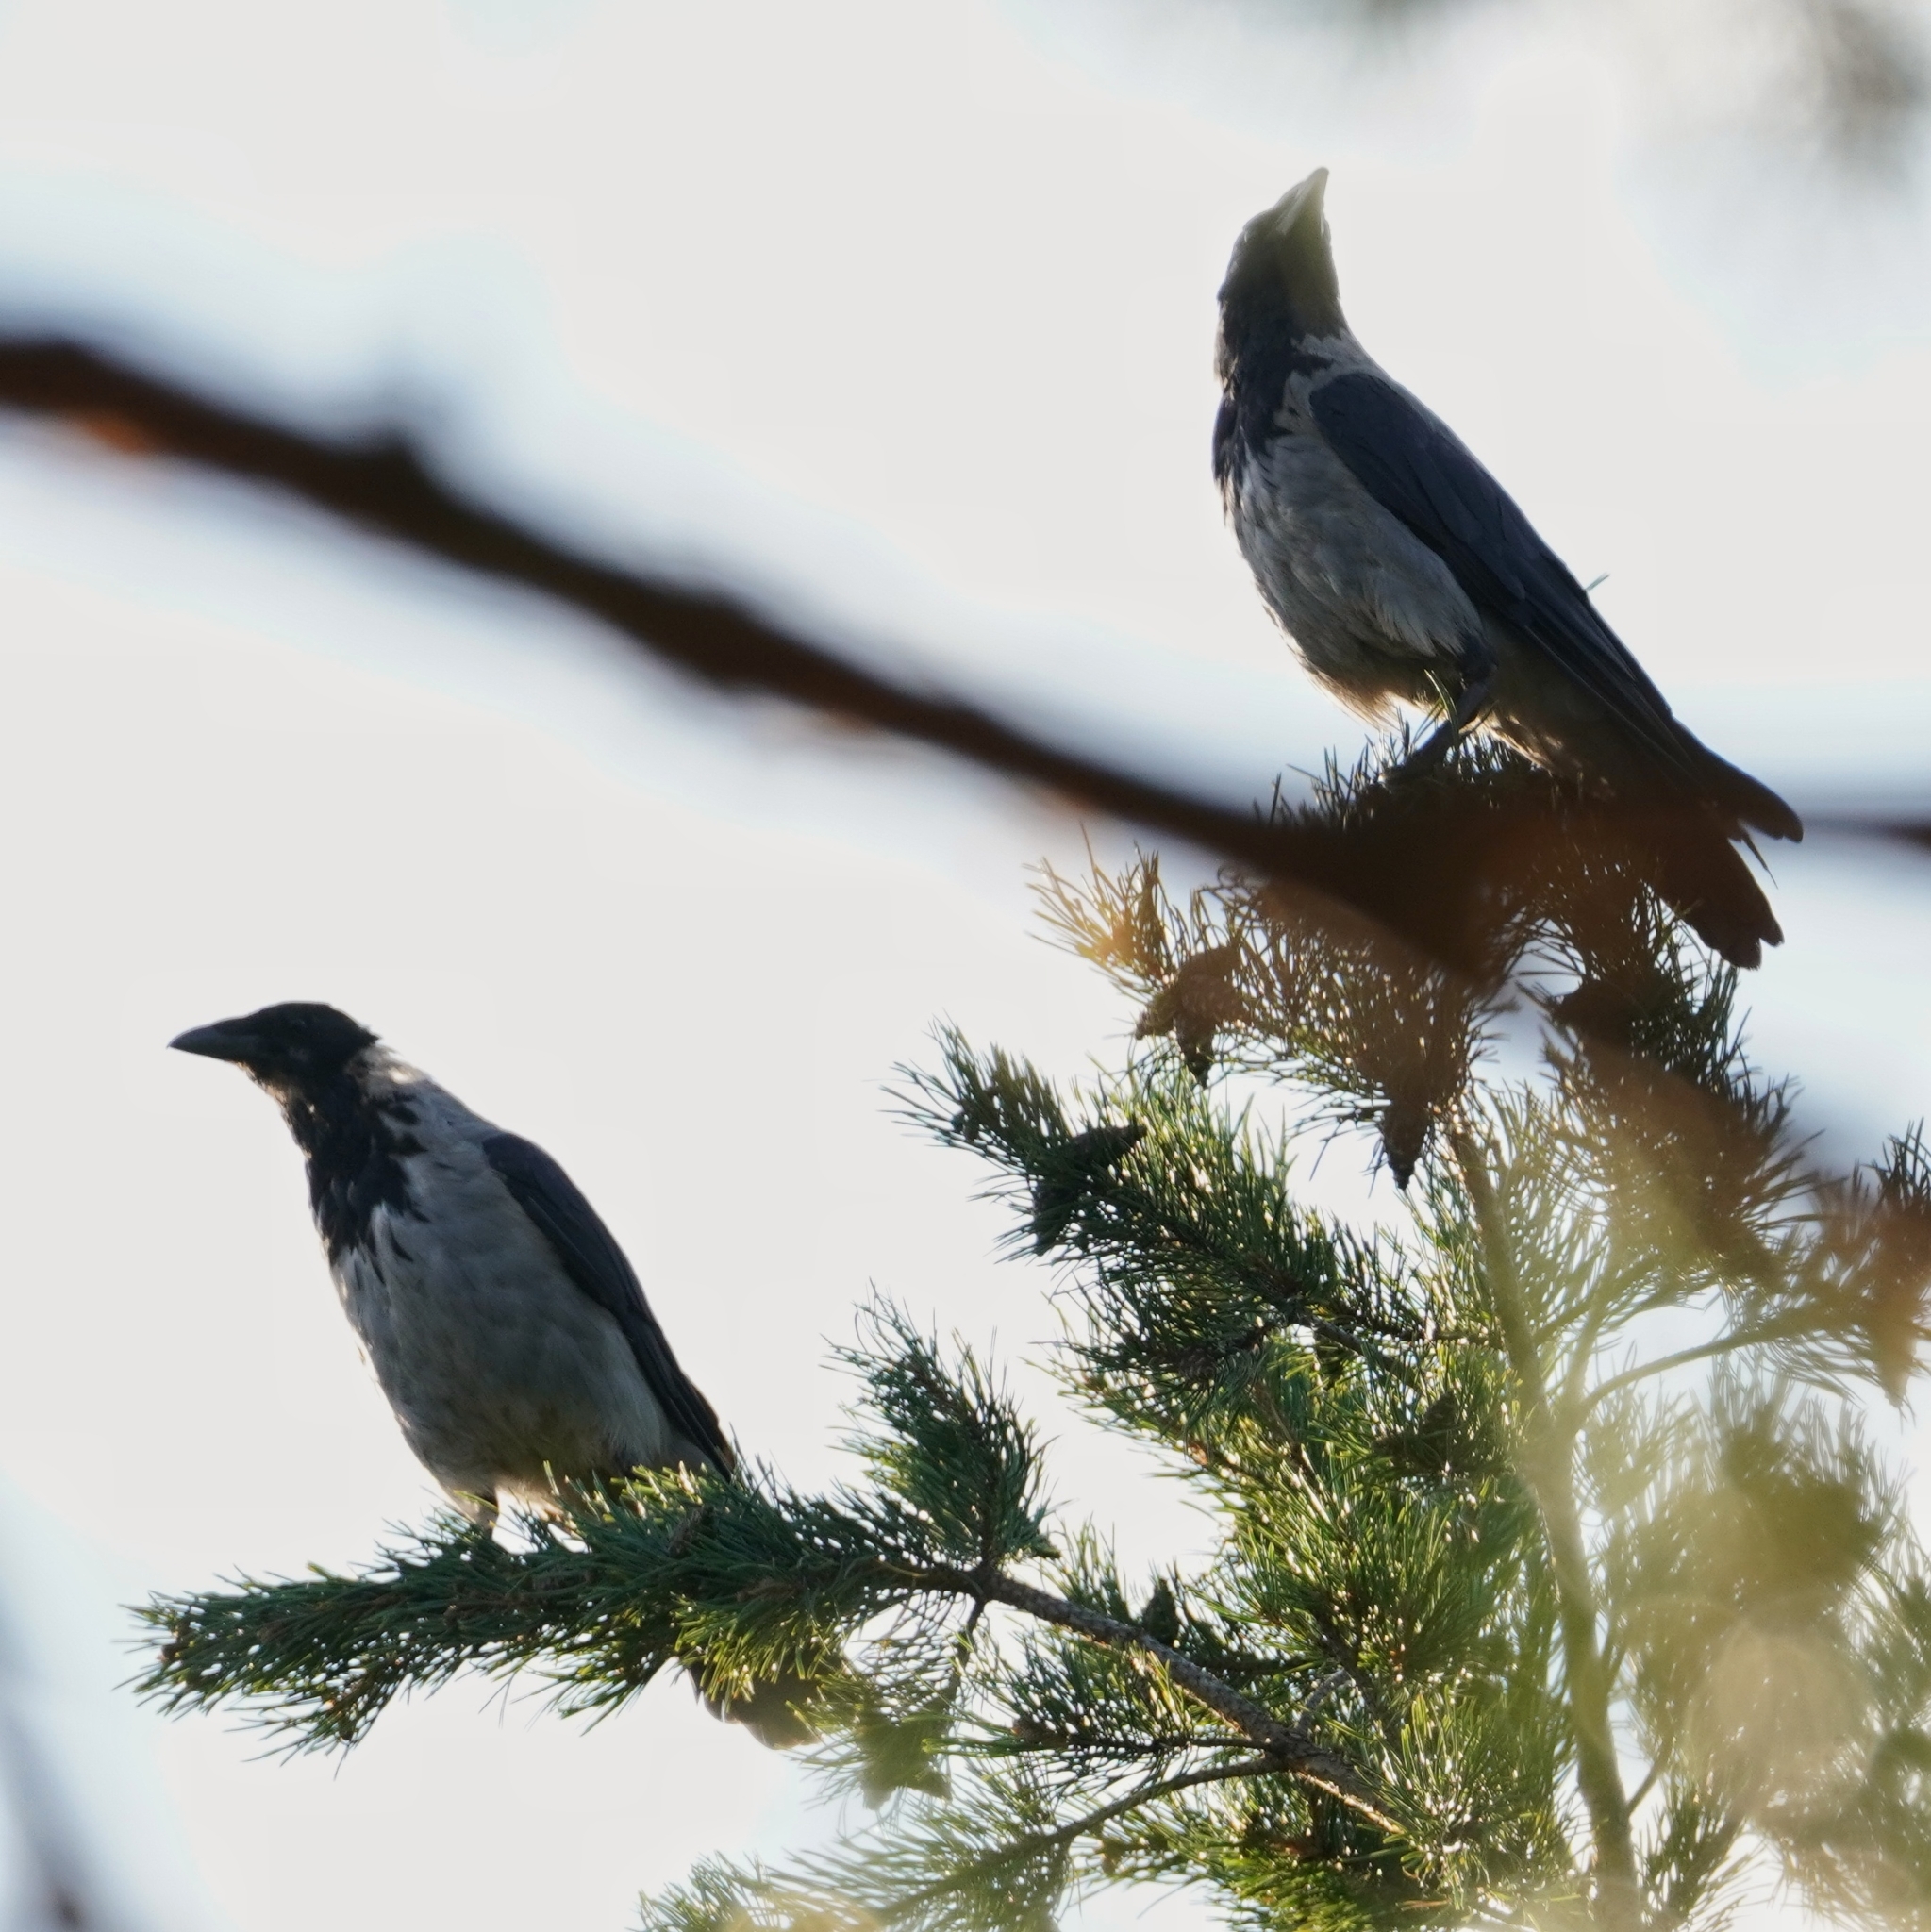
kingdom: Animalia
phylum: Chordata
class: Aves
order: Passeriformes
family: Corvidae
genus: Corvus
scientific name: Corvus cornix
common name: Hooded crow
